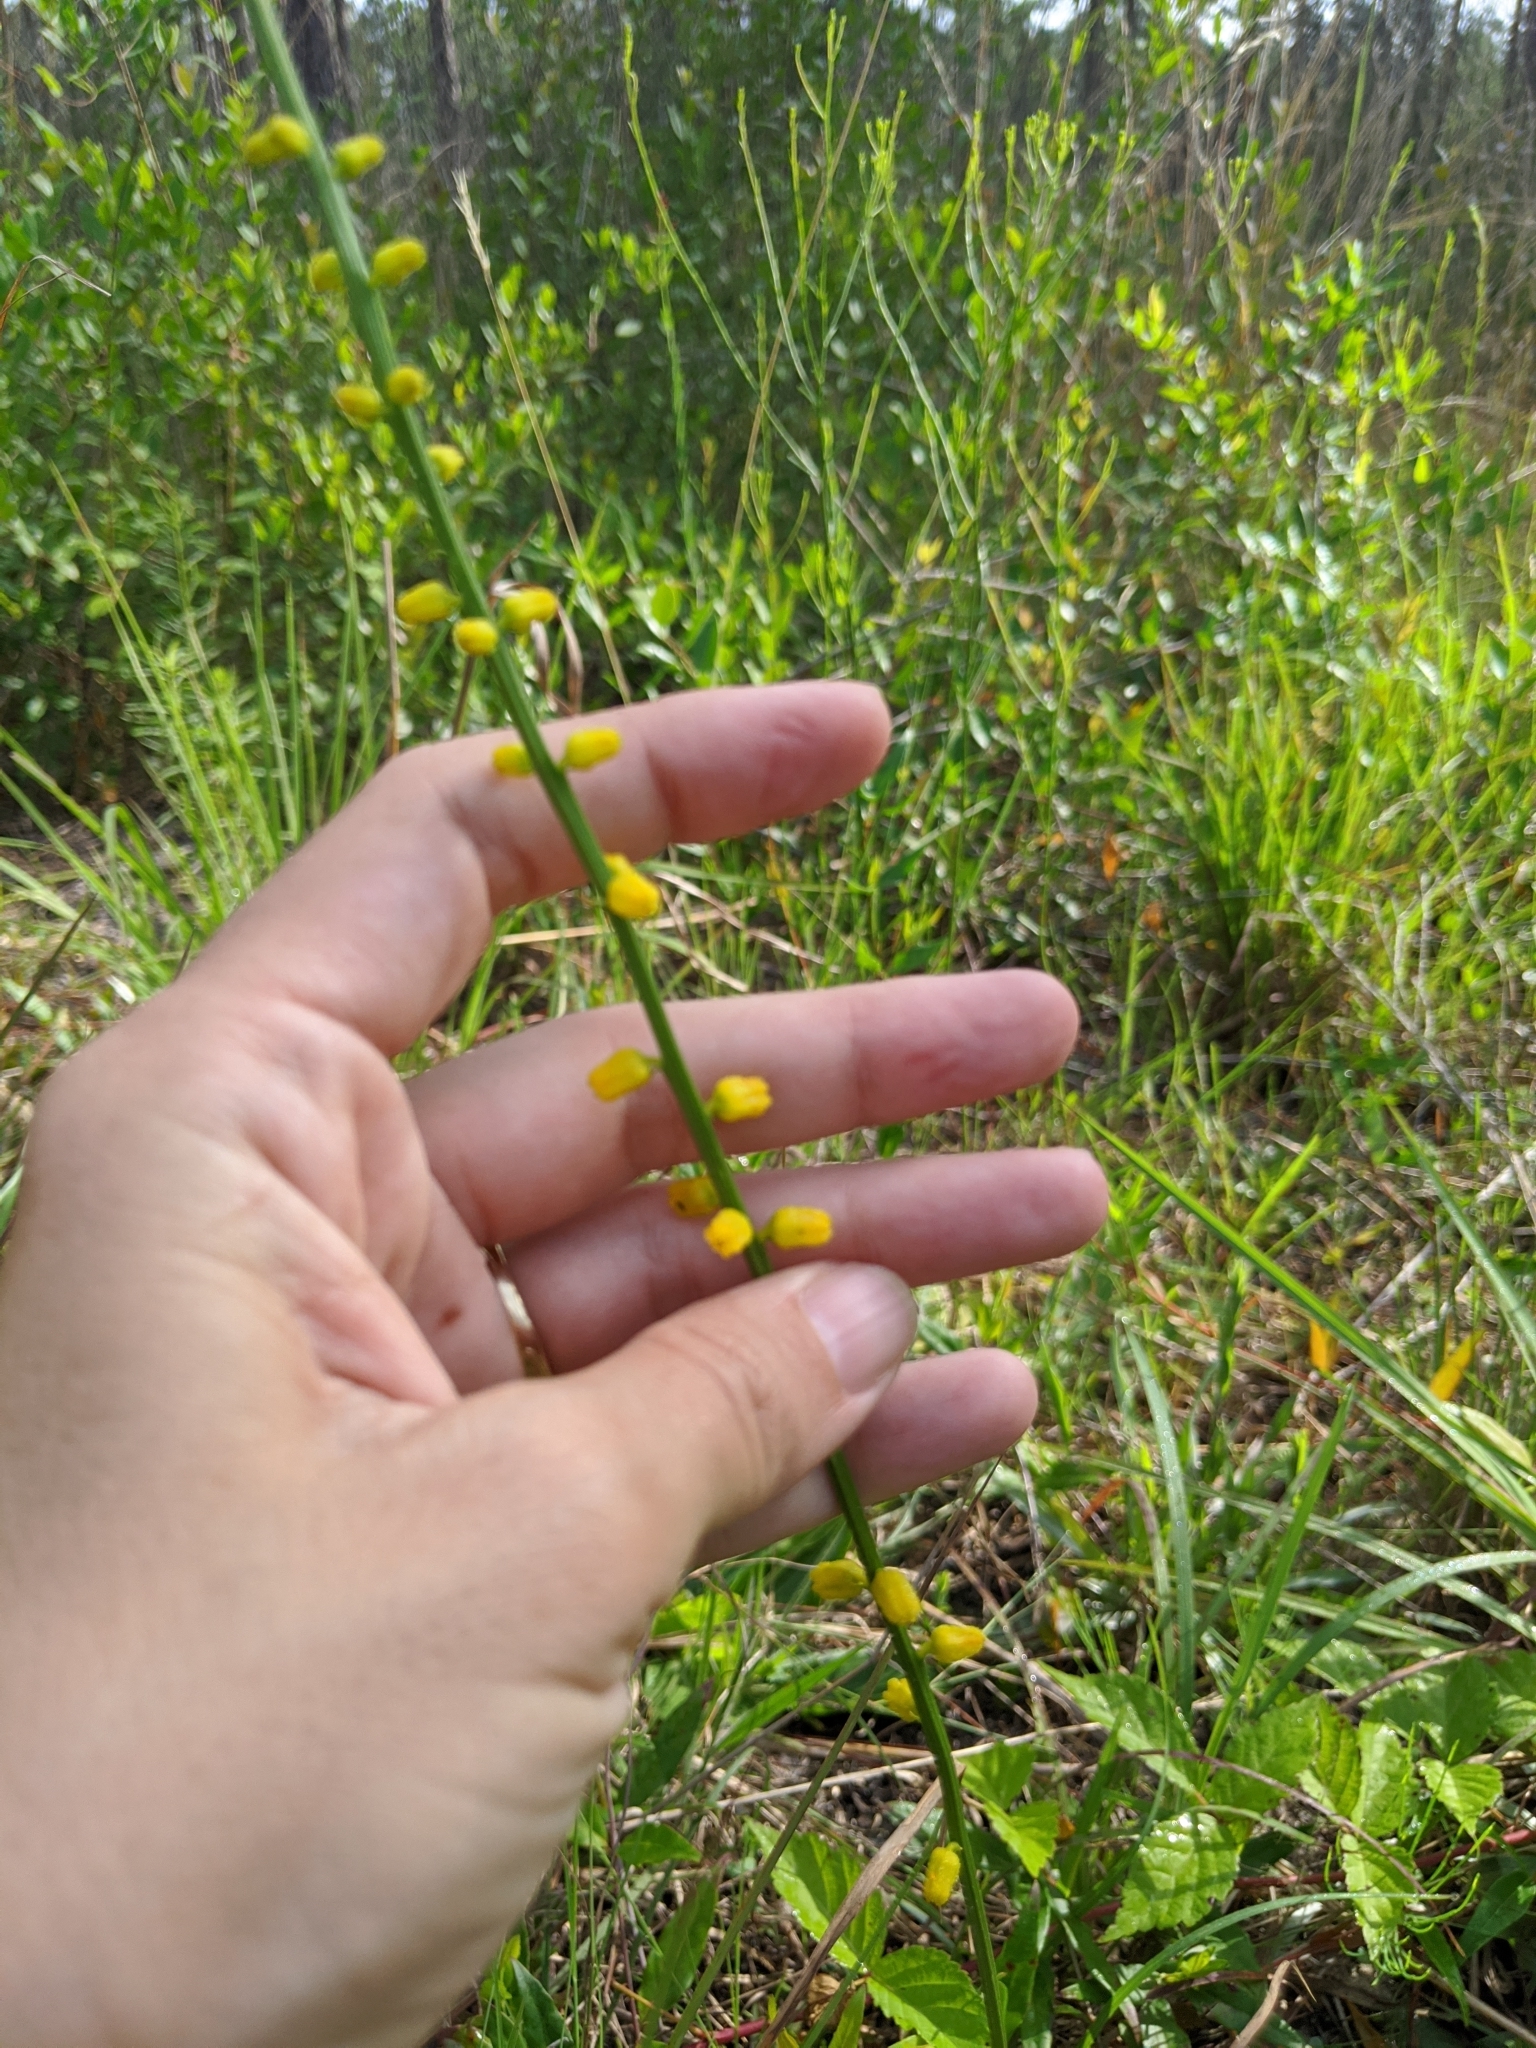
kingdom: Plantae
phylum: Tracheophyta
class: Liliopsida
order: Dioscoreales
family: Nartheciaceae
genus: Aletris
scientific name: Aletris aurea
